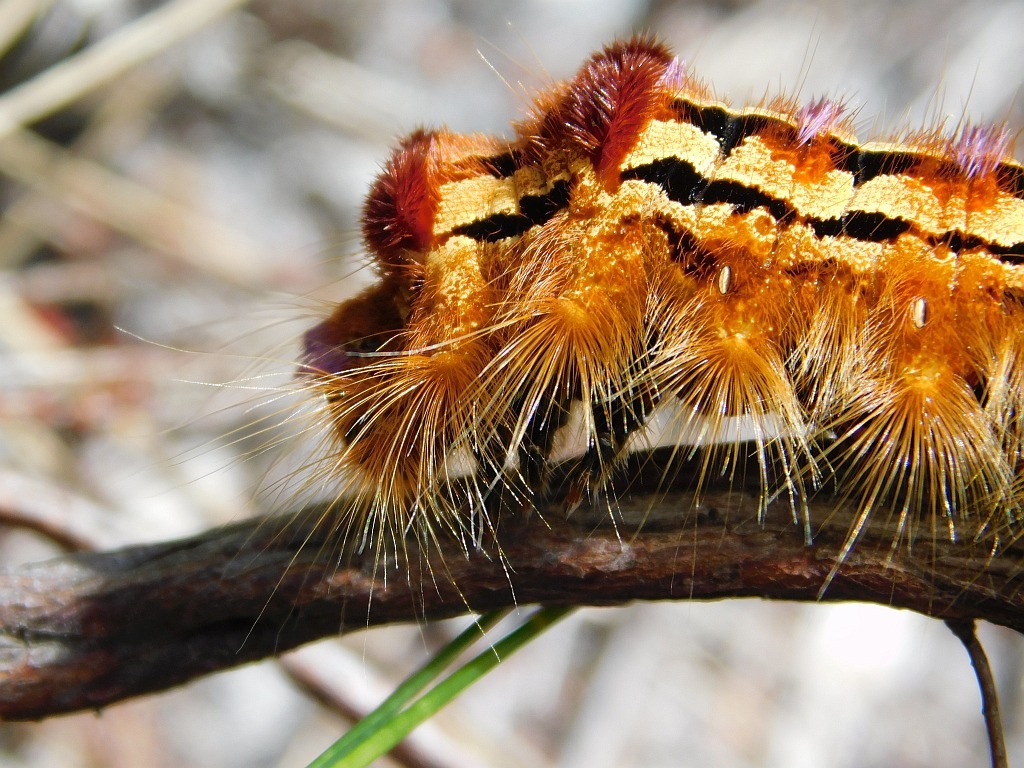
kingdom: Animalia
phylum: Arthropoda
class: Insecta
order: Lepidoptera
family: Lasiocampidae
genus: Eutricha
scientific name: Eutricha bifascia
